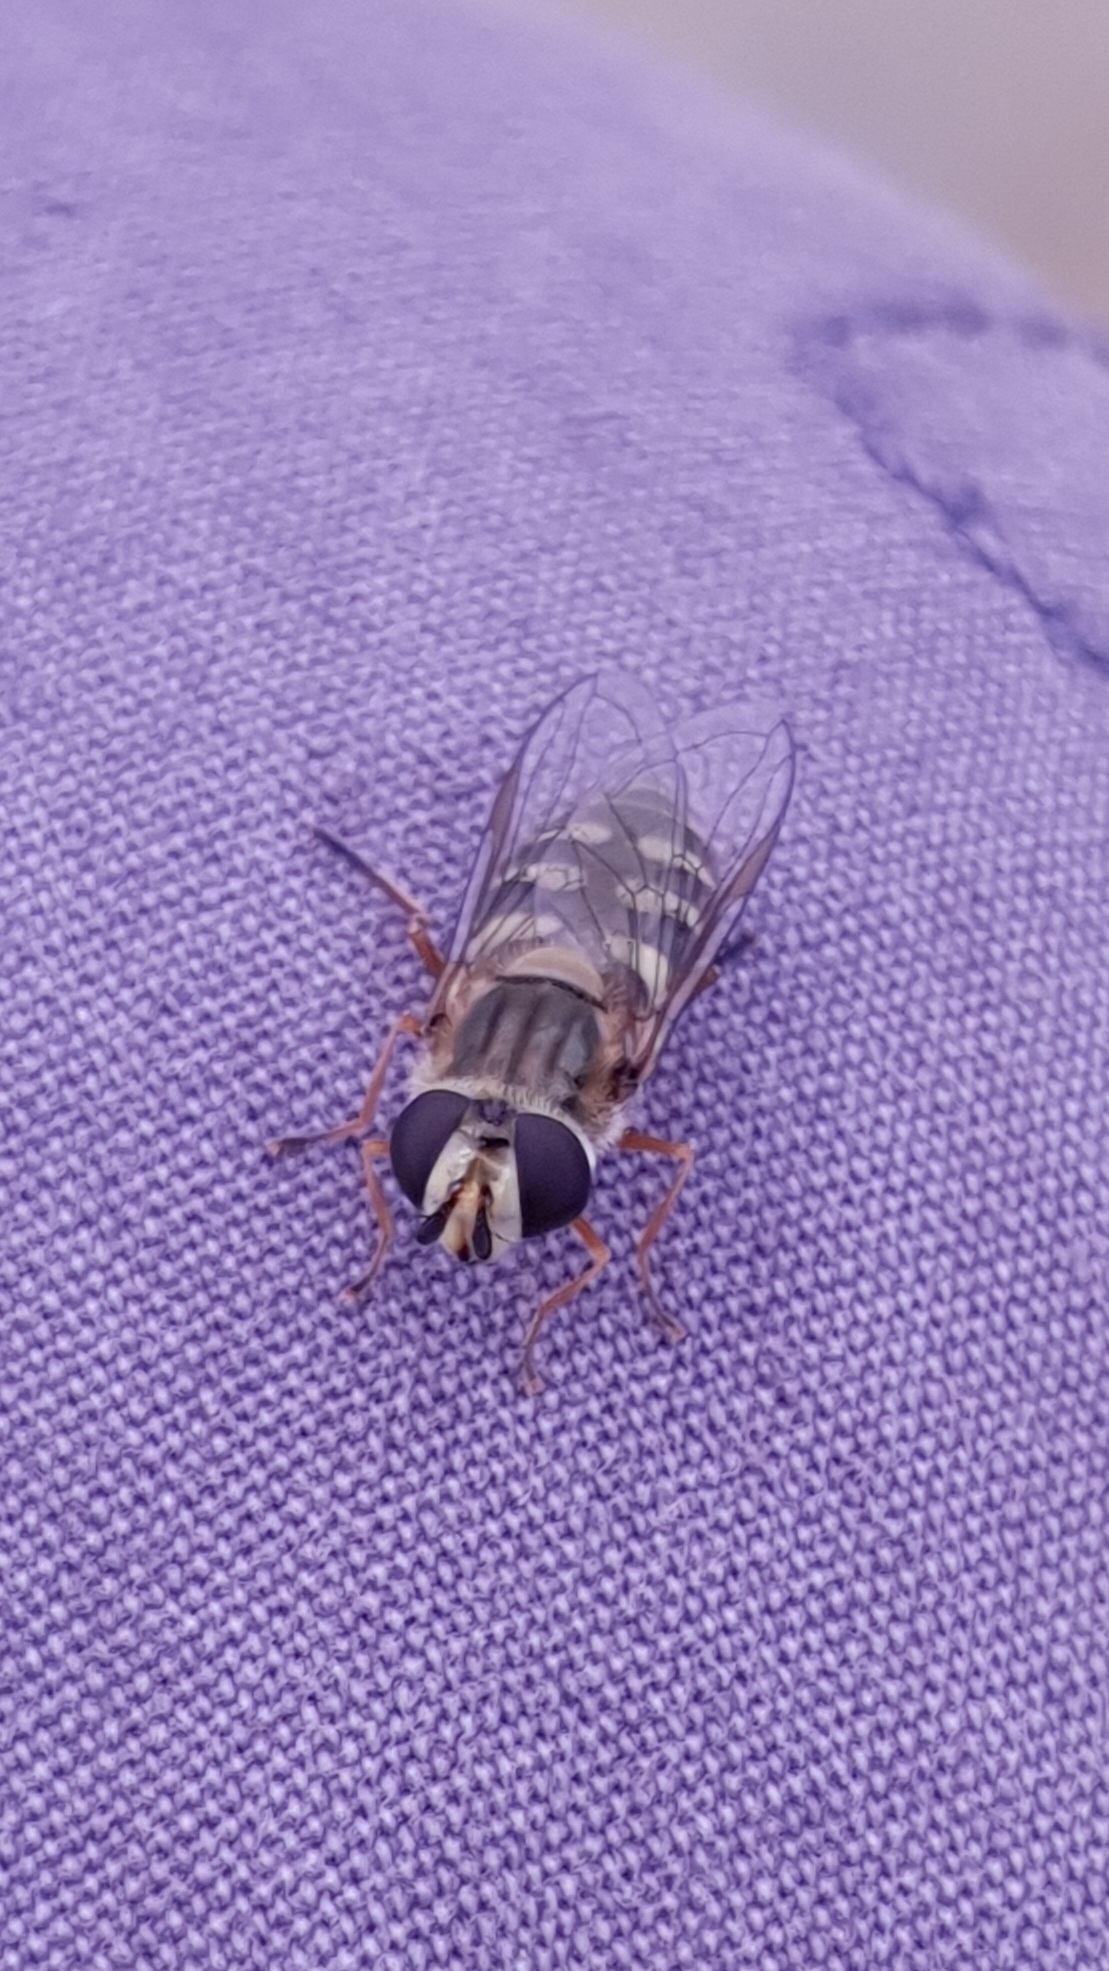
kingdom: Animalia
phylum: Arthropoda
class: Insecta
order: Diptera
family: Syrphidae
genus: Eupeodes
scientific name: Eupeodes corollae
